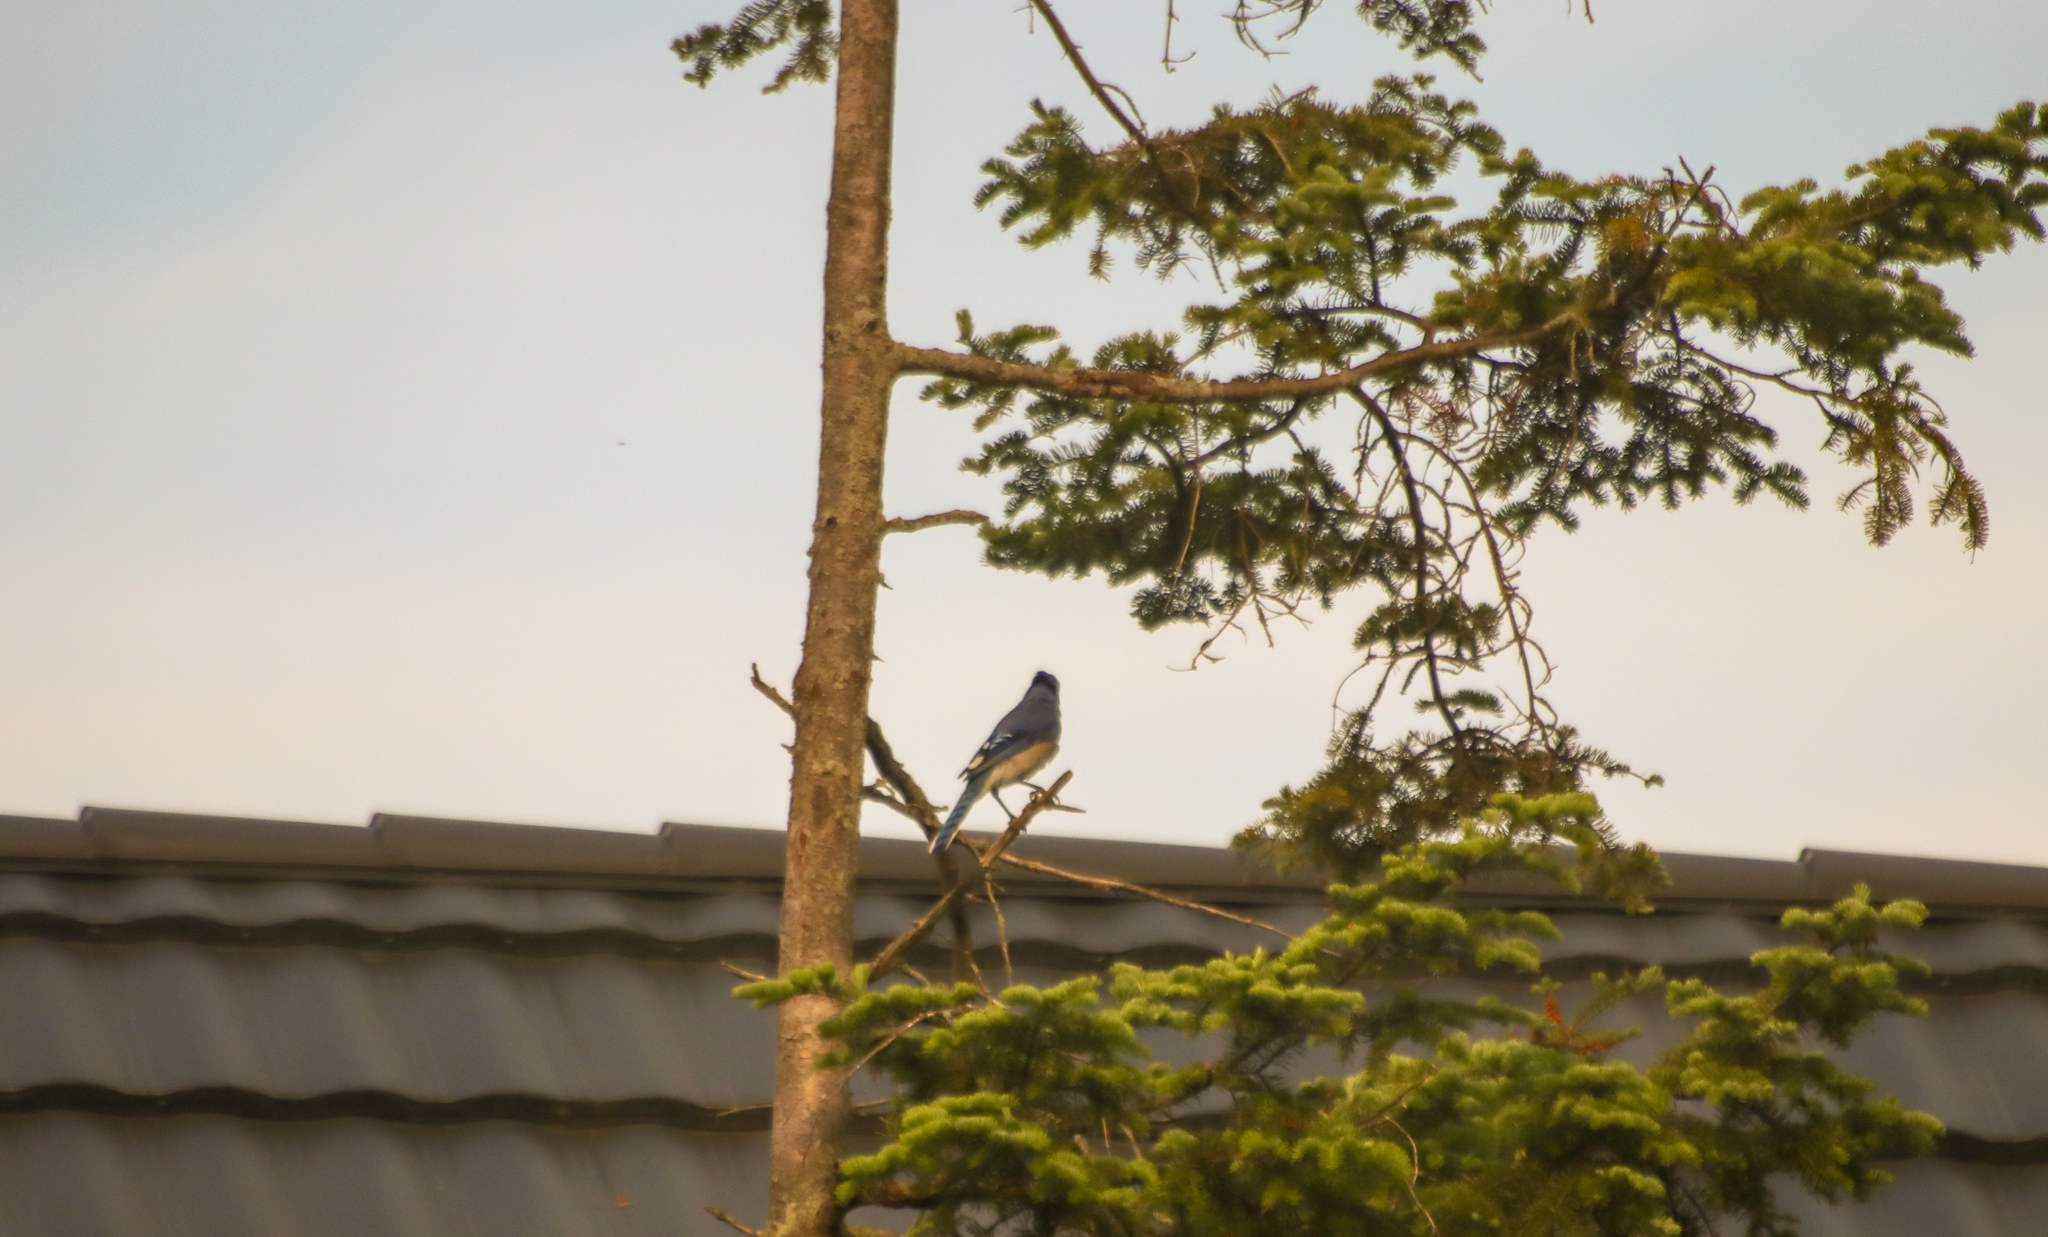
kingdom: Animalia
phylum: Chordata
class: Aves
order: Passeriformes
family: Corvidae
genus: Cyanocitta
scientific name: Cyanocitta cristata
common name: Blue jay
